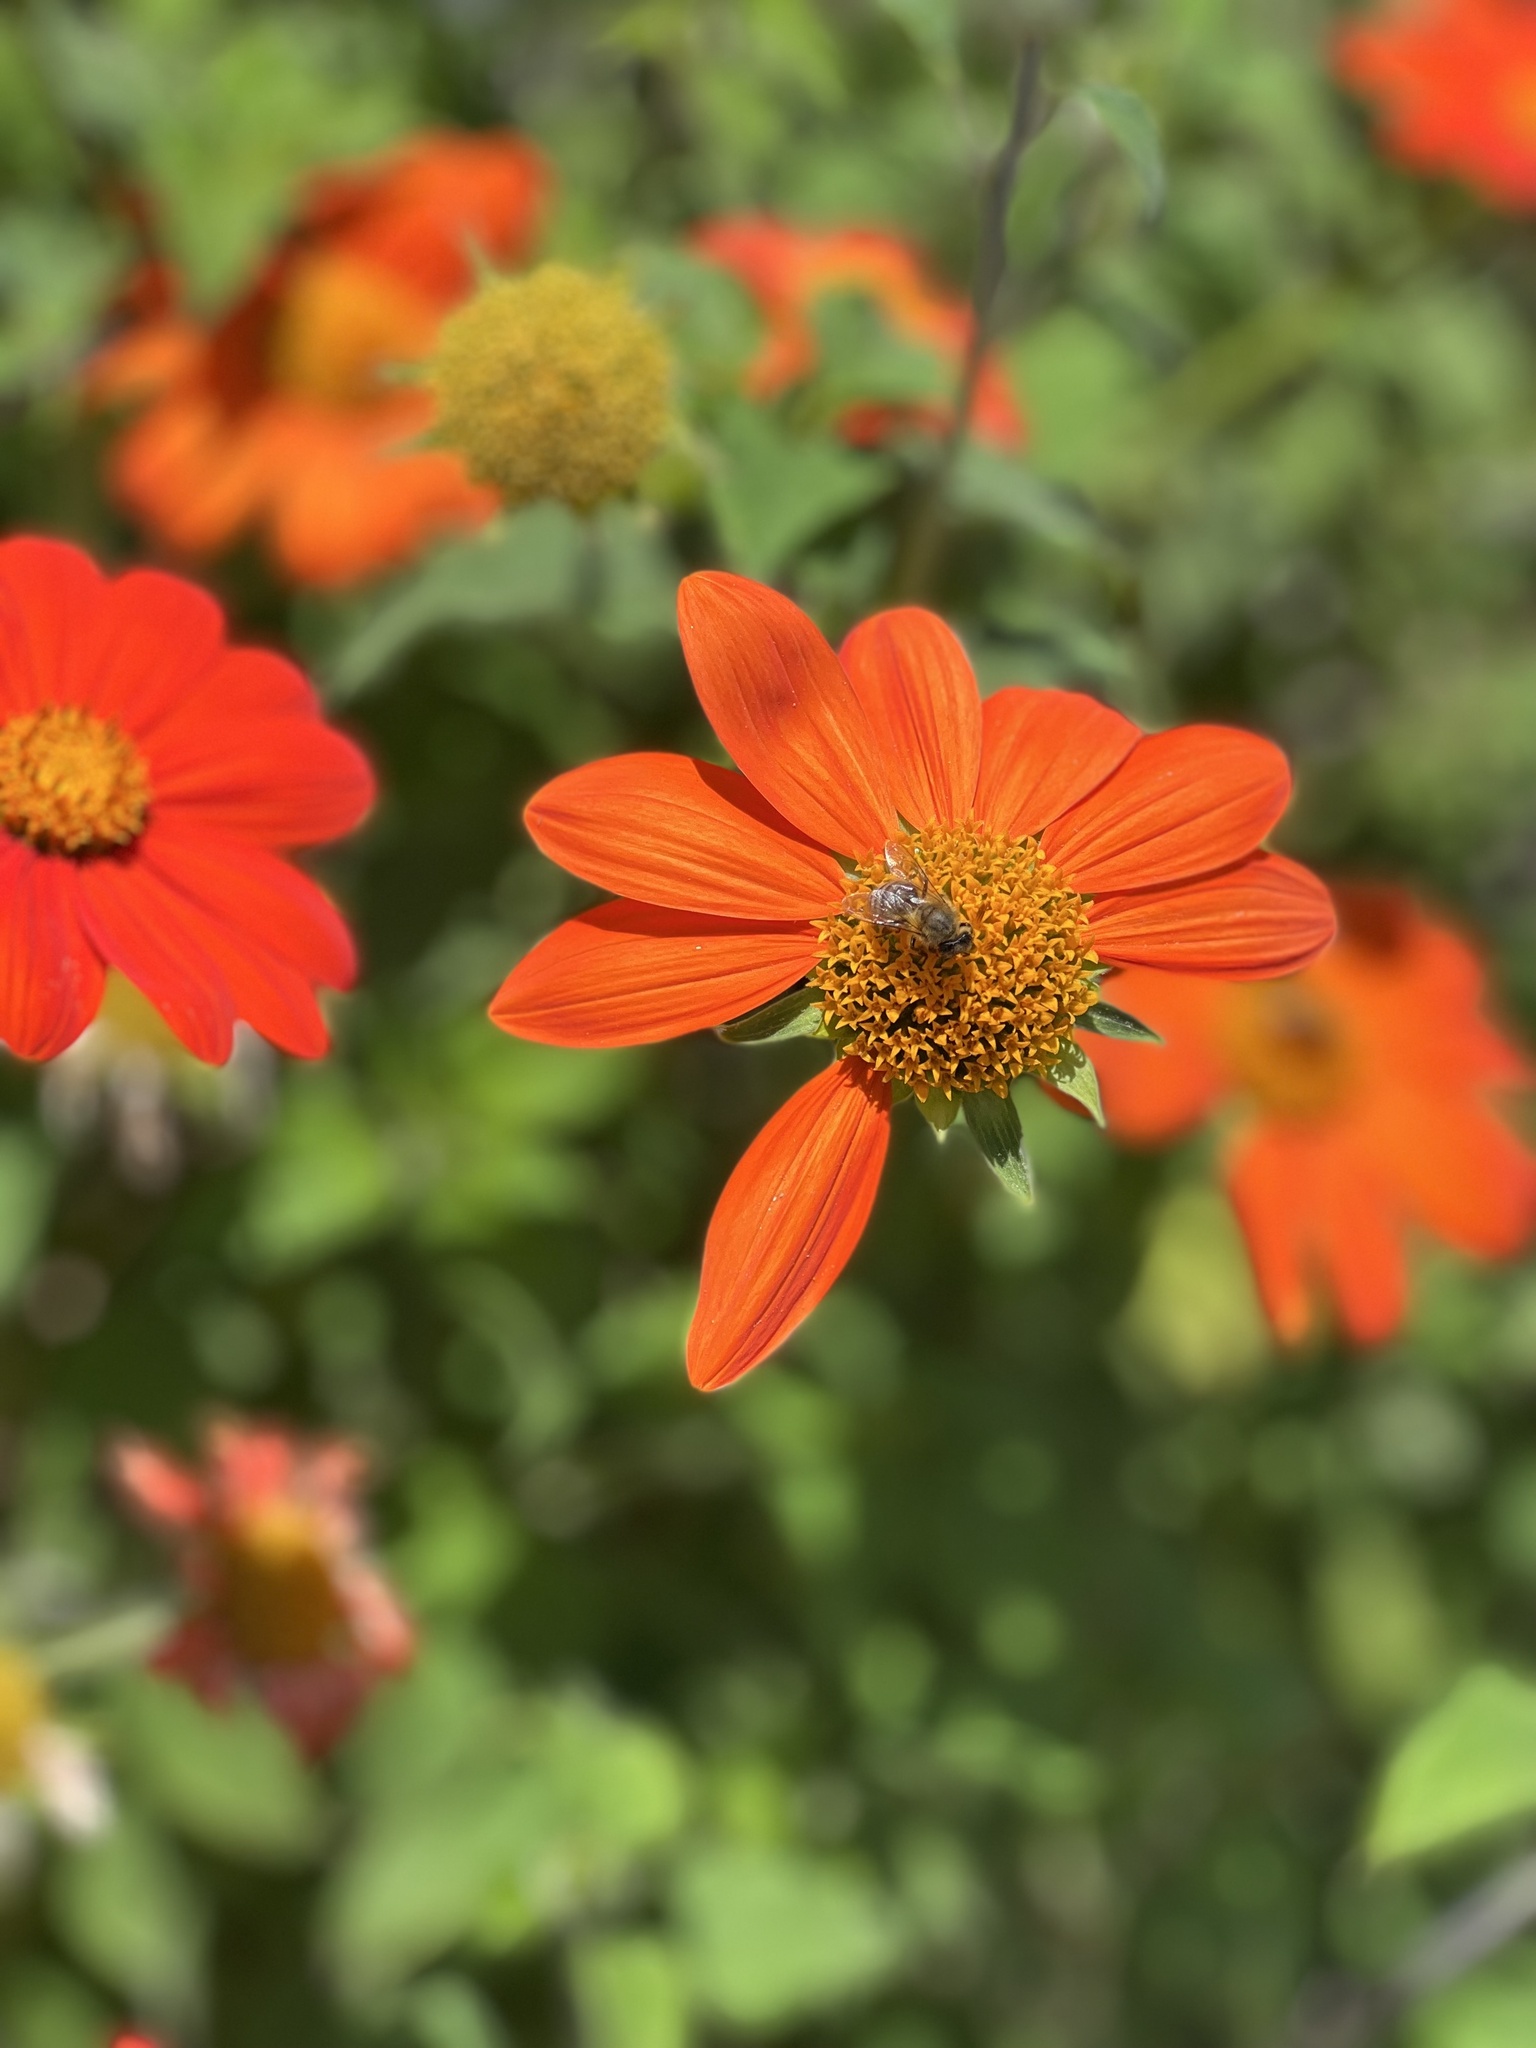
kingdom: Animalia
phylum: Arthropoda
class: Insecta
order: Hymenoptera
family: Apidae
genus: Apis
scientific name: Apis mellifera
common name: Honey bee
